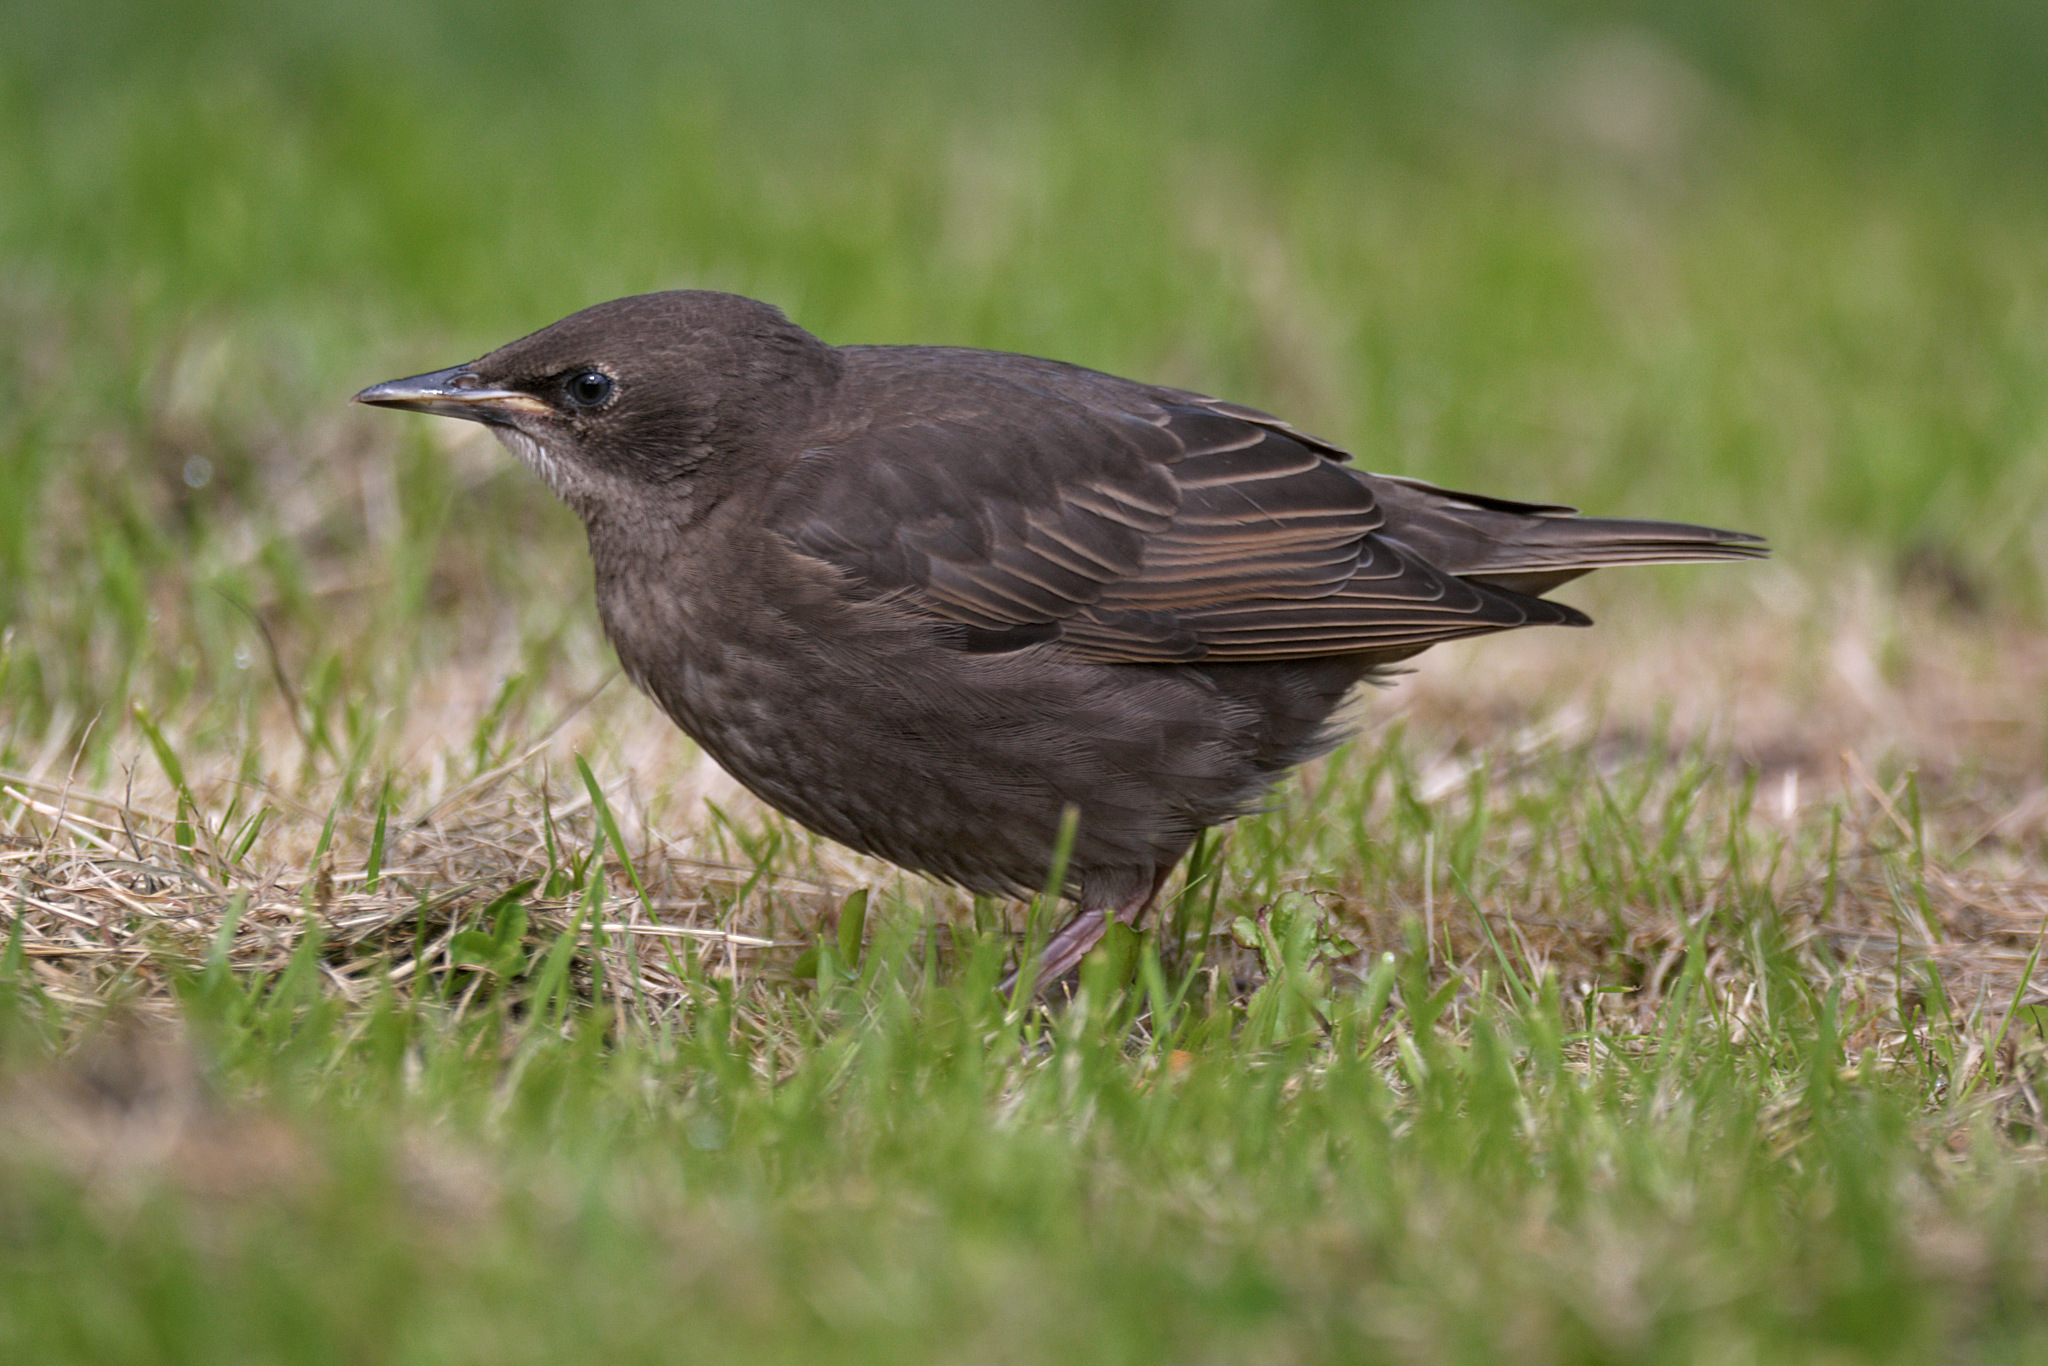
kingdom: Animalia
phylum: Chordata
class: Aves
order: Passeriformes
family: Sturnidae
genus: Sturnus
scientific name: Sturnus vulgaris
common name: Common starling
